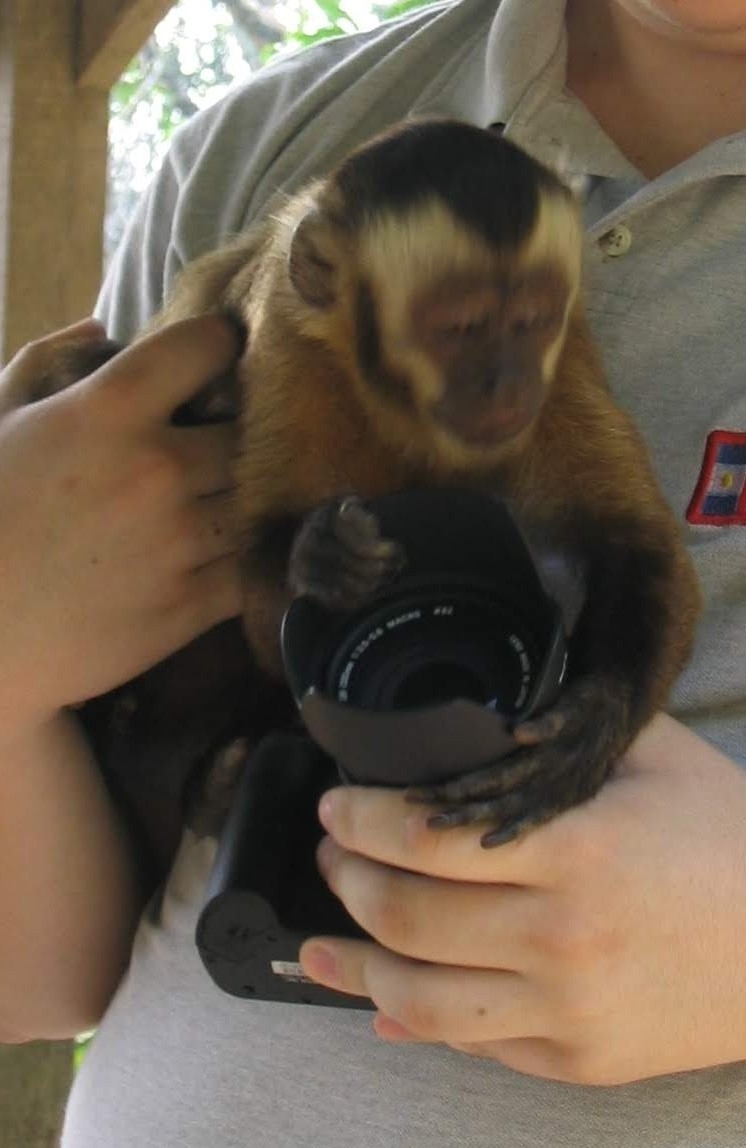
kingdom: Animalia
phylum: Chordata
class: Mammalia
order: Primates
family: Cebidae
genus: Sapajus
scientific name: Sapajus apella
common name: Tufted capuchin
